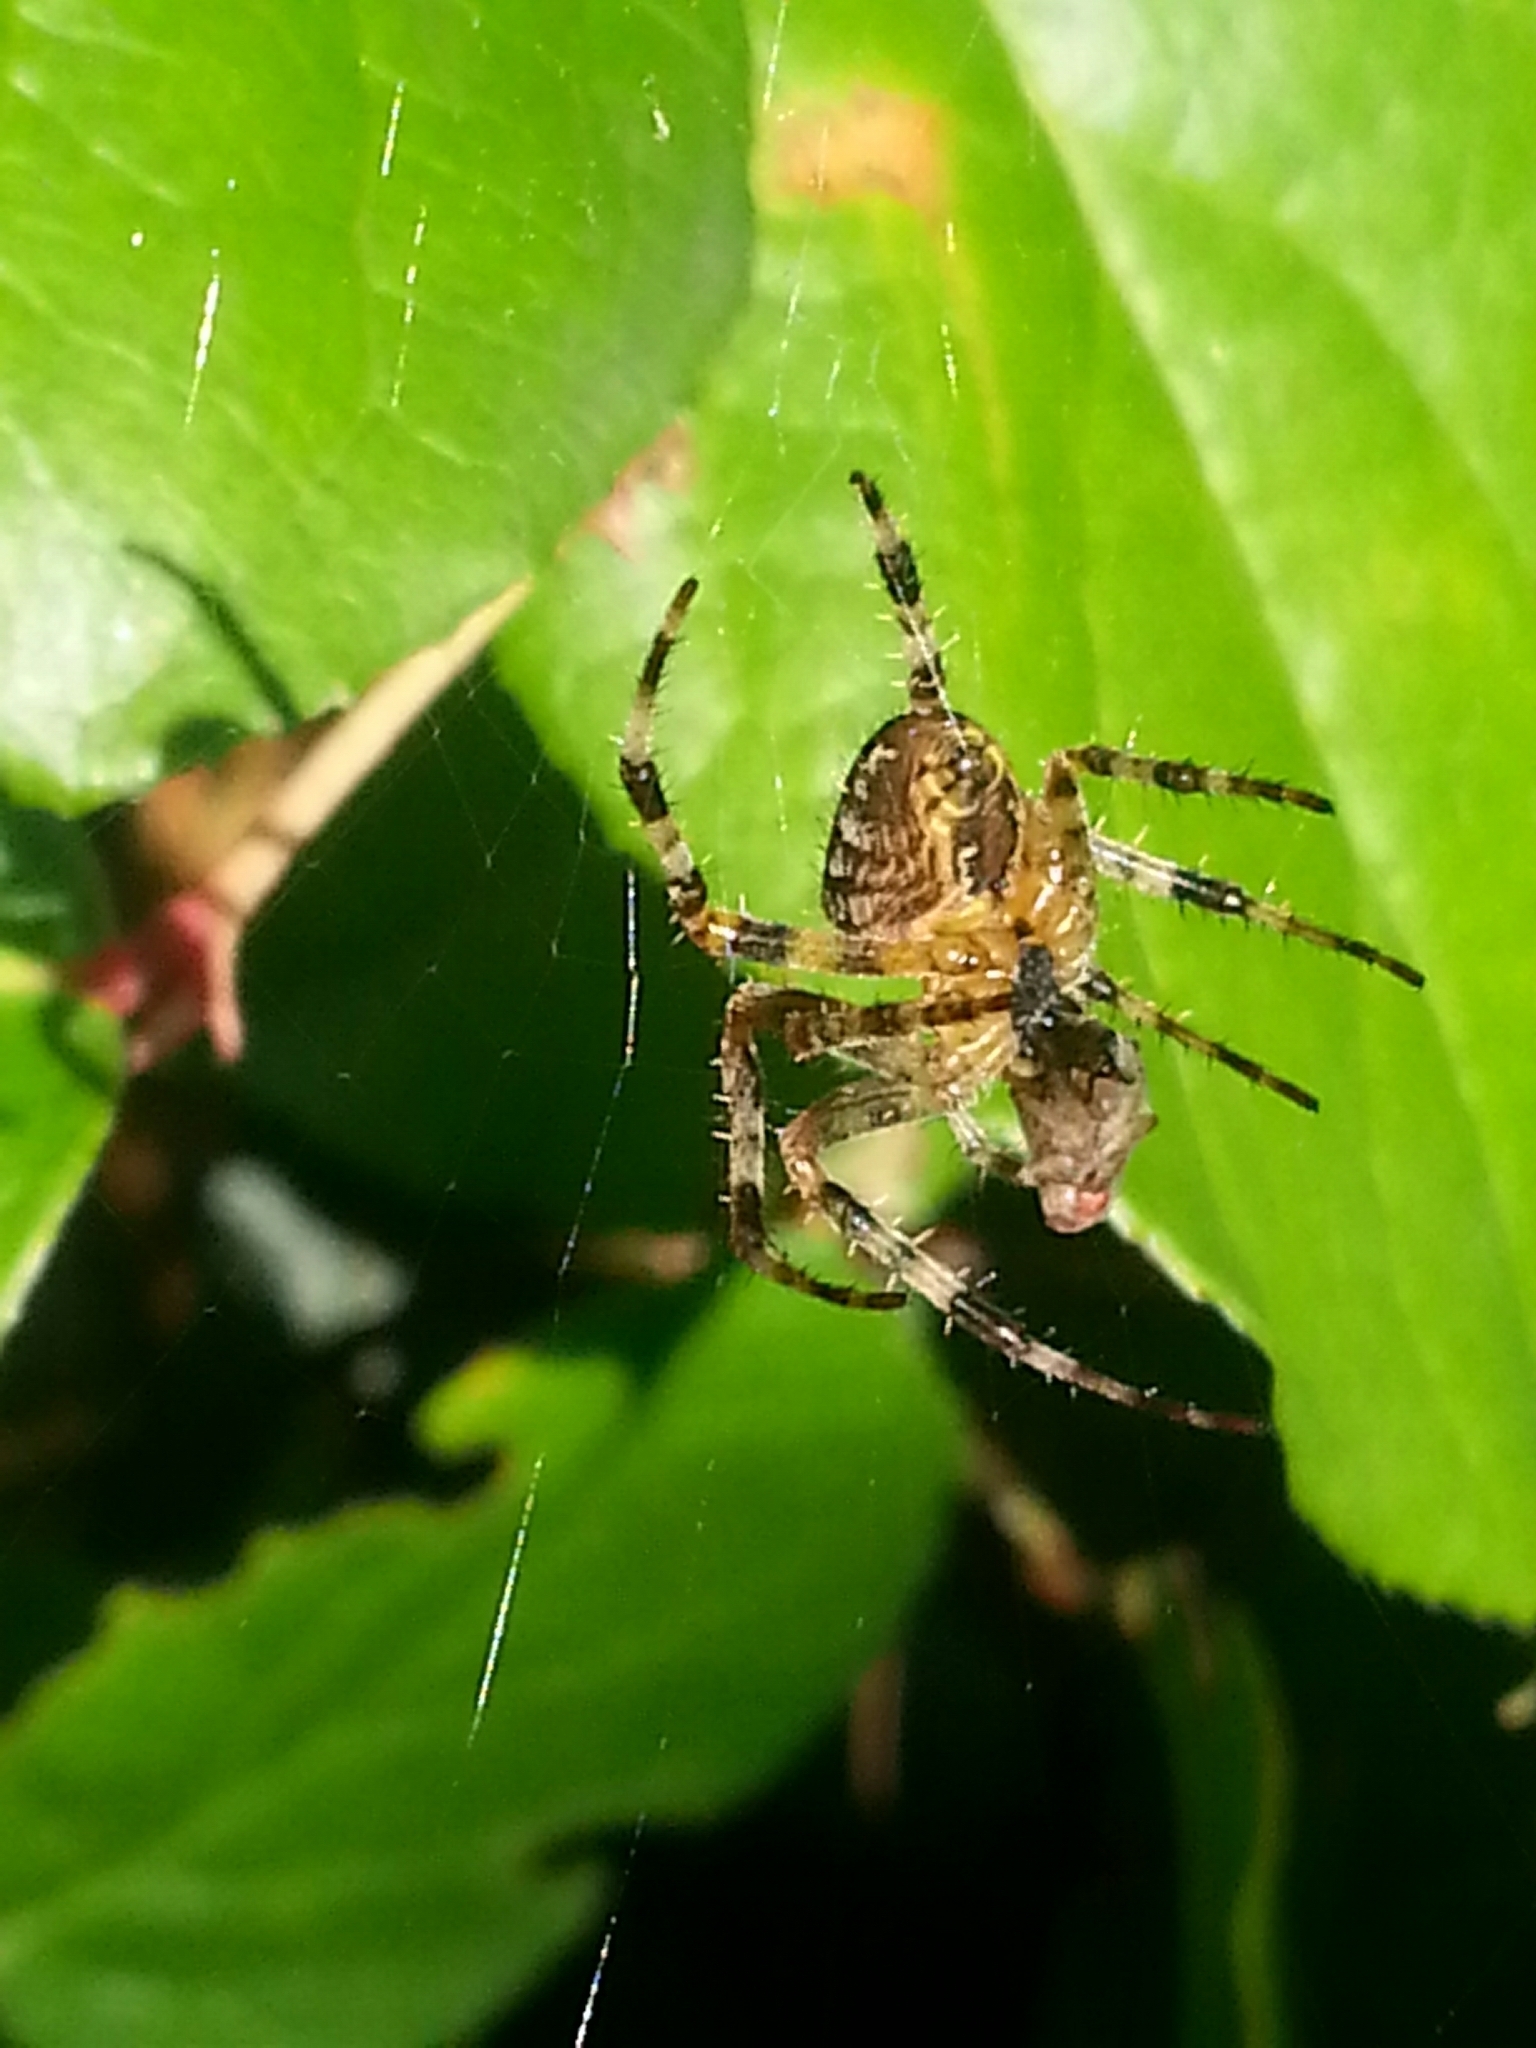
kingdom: Animalia
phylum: Arthropoda
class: Arachnida
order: Araneae
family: Araneidae
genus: Araneus
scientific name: Araneus diadematus
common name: Cross orbweaver
